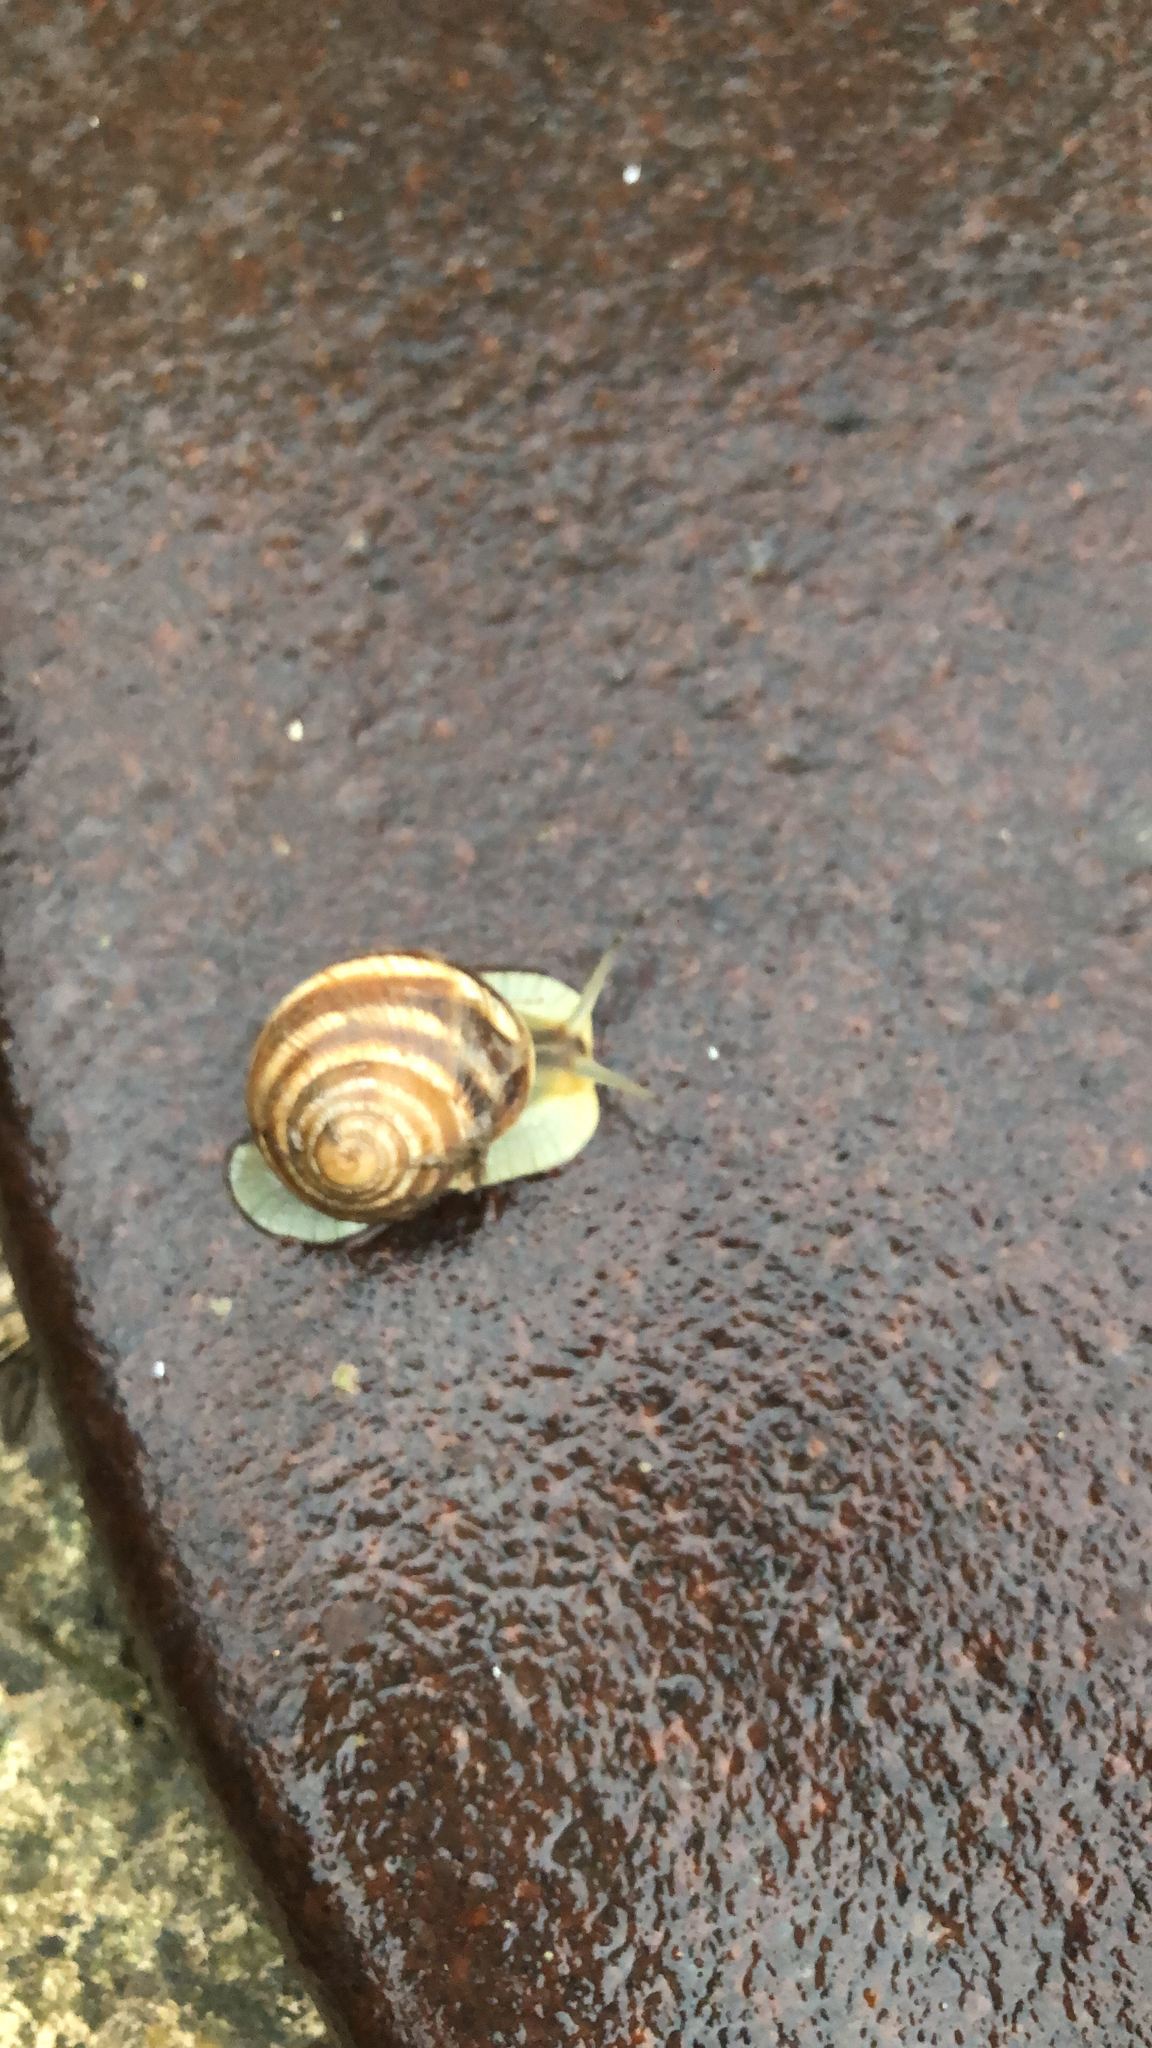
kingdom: Animalia
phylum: Mollusca
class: Gastropoda
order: Stylommatophora
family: Helicidae
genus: Helix
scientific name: Helix albescens
